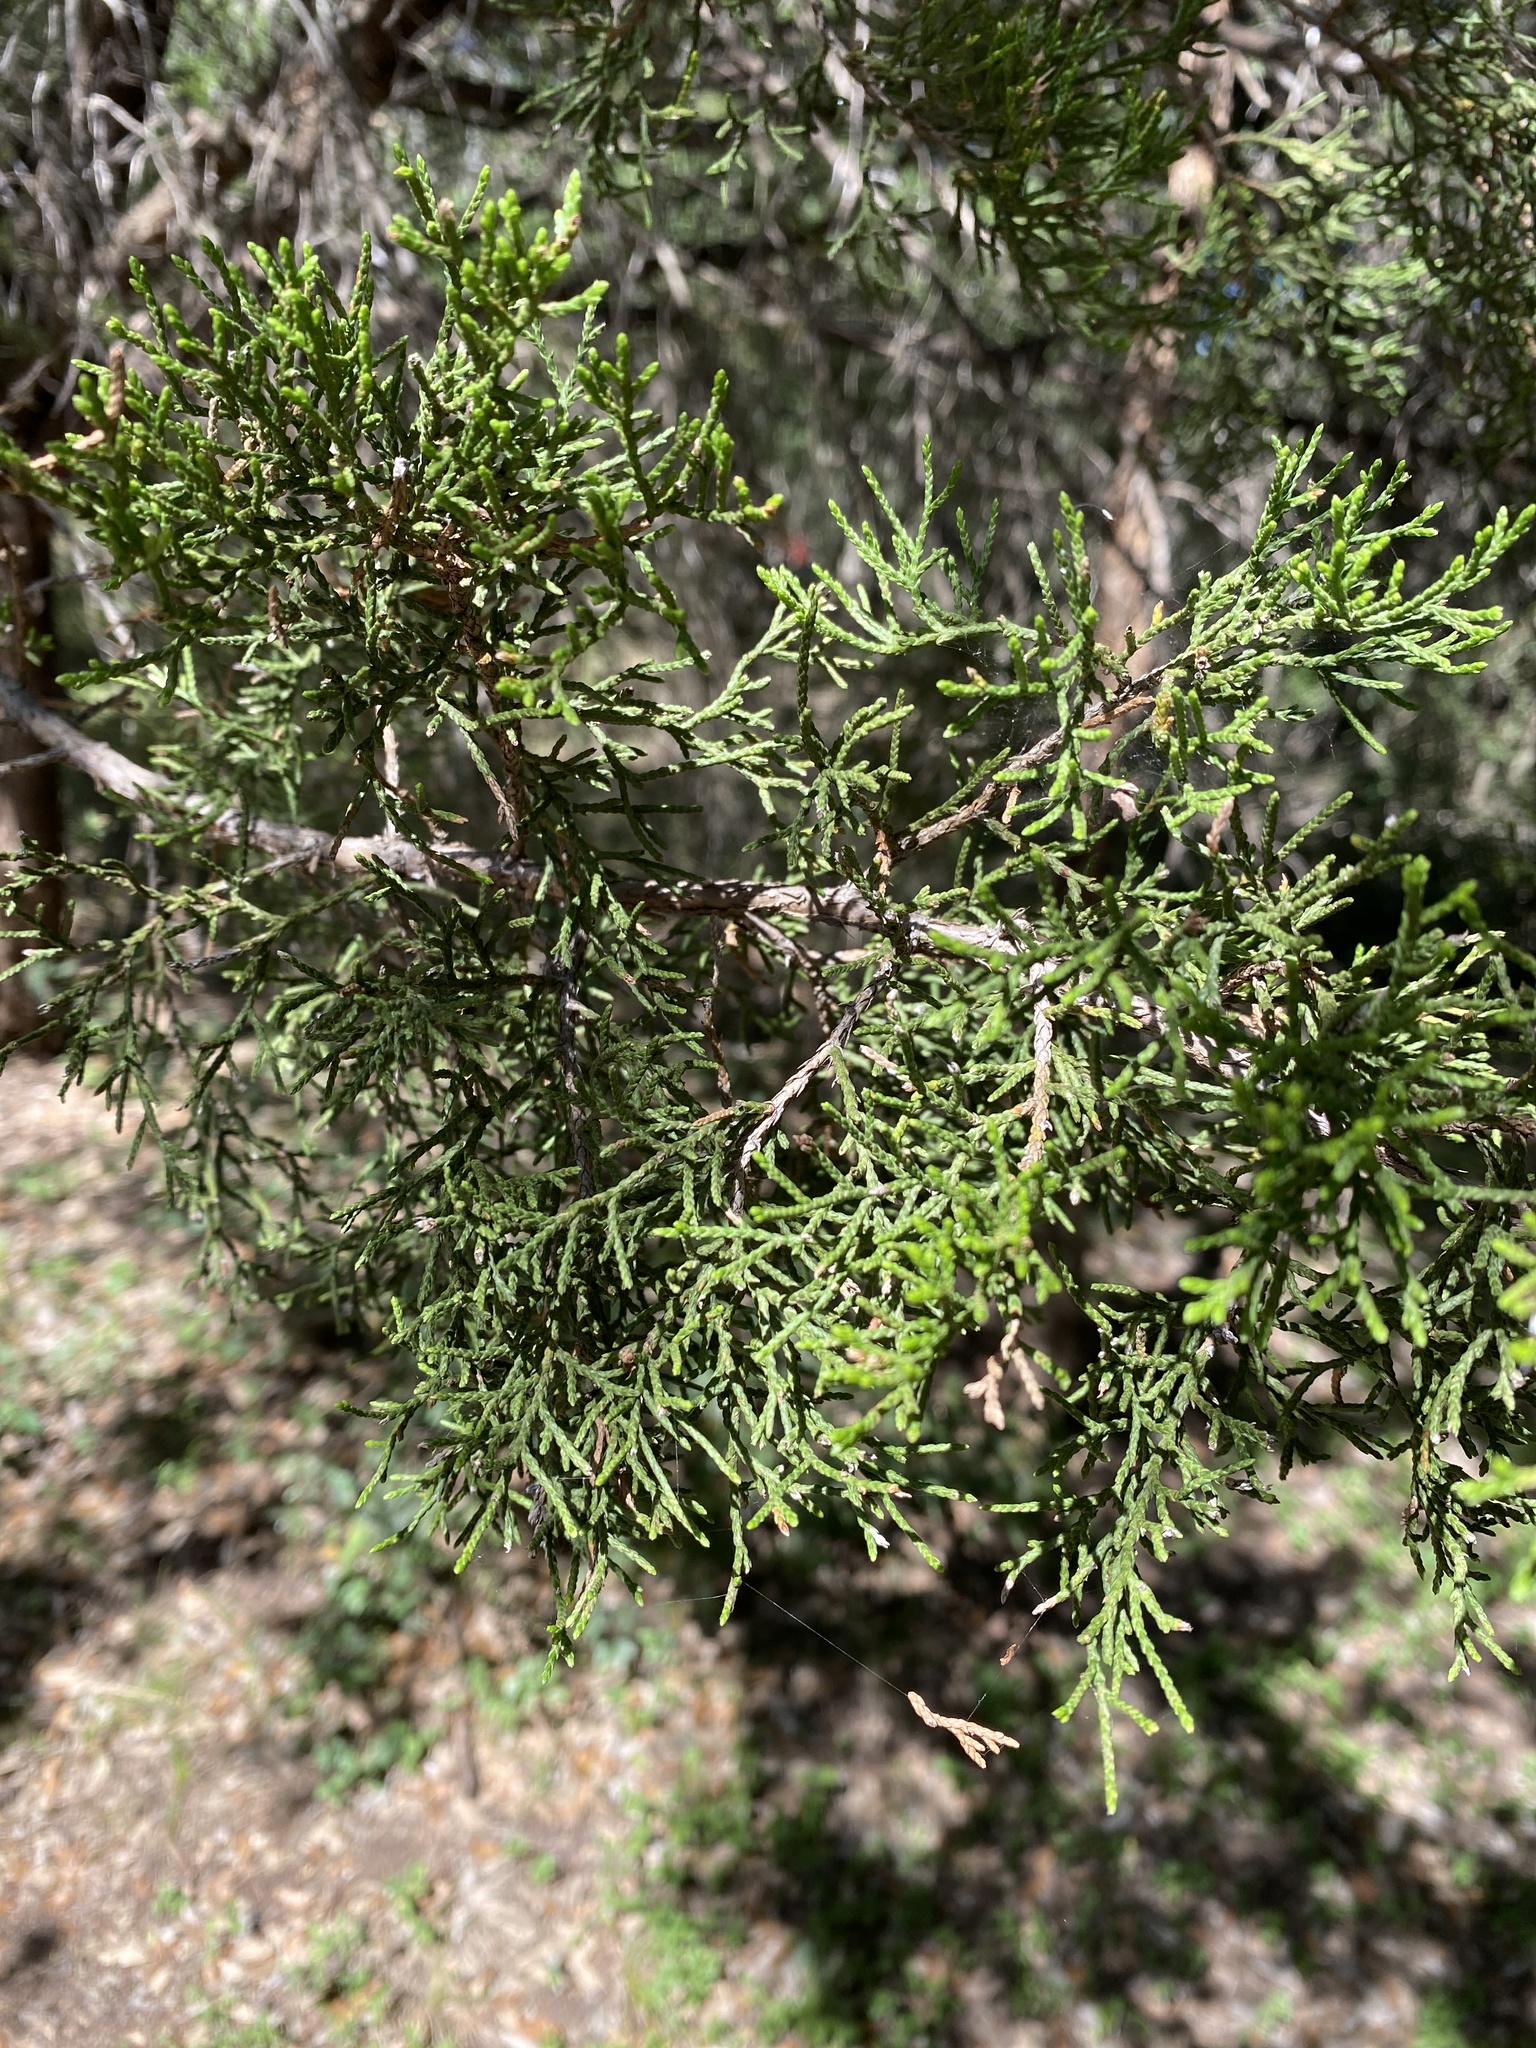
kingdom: Plantae
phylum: Tracheophyta
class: Pinopsida
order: Pinales
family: Cupressaceae
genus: Juniperus
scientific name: Juniperus ashei
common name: Mexican juniper
